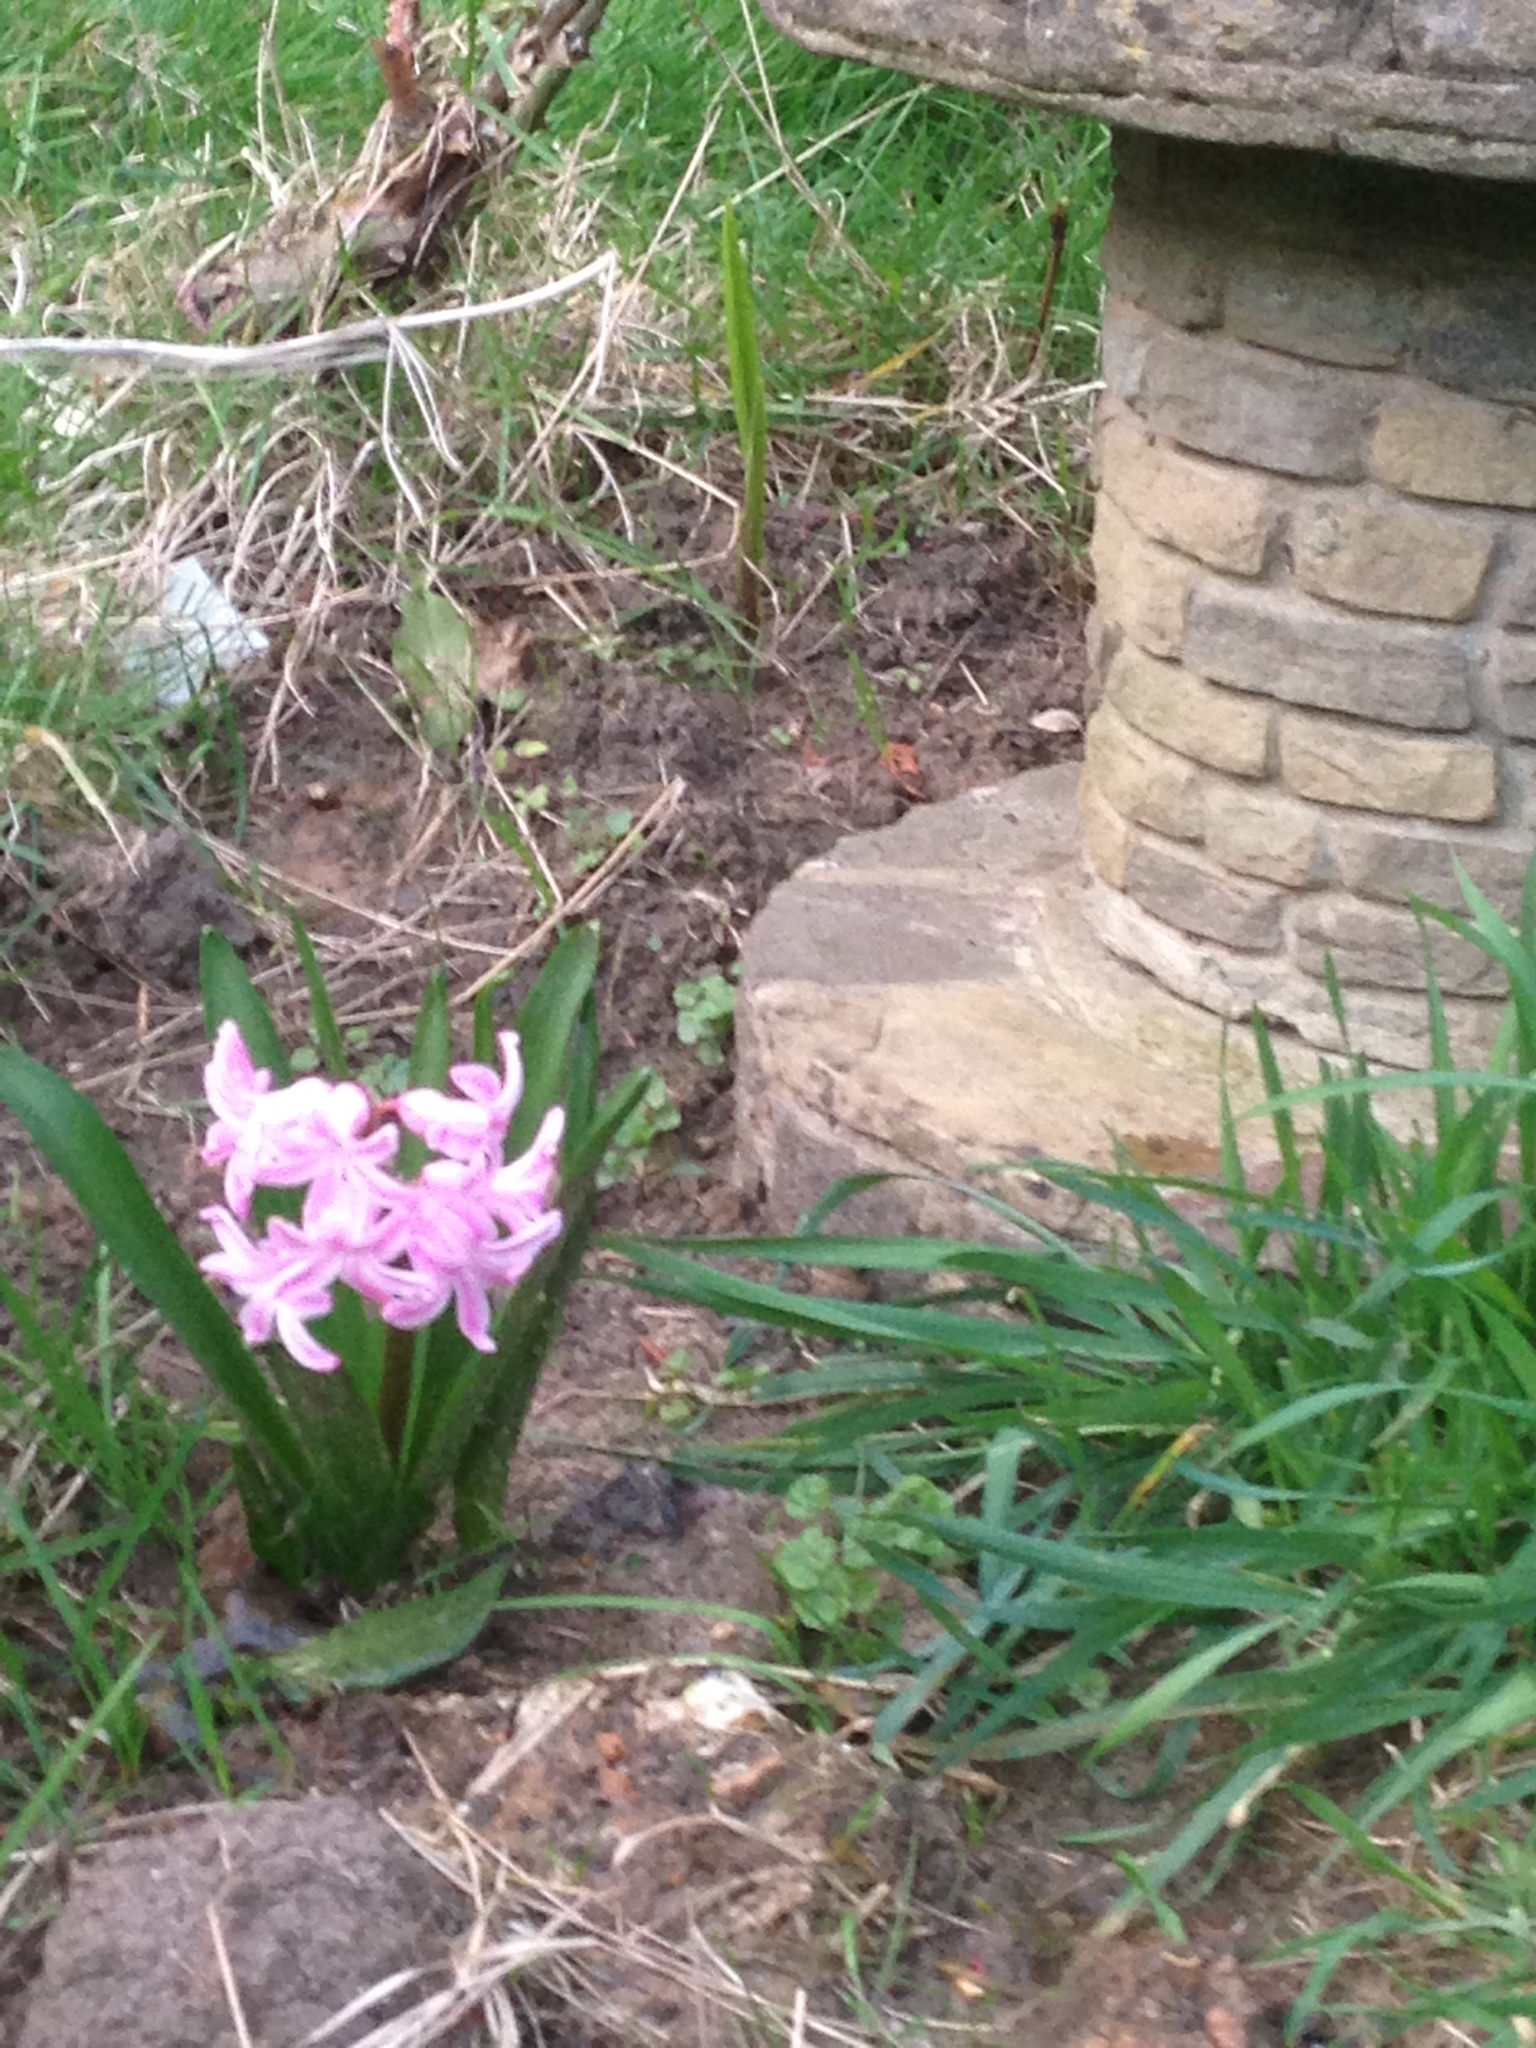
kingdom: Plantae
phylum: Tracheophyta
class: Liliopsida
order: Asparagales
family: Asparagaceae
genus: Hyacinthus
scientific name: Hyacinthus orientalis
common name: Hyacinth
